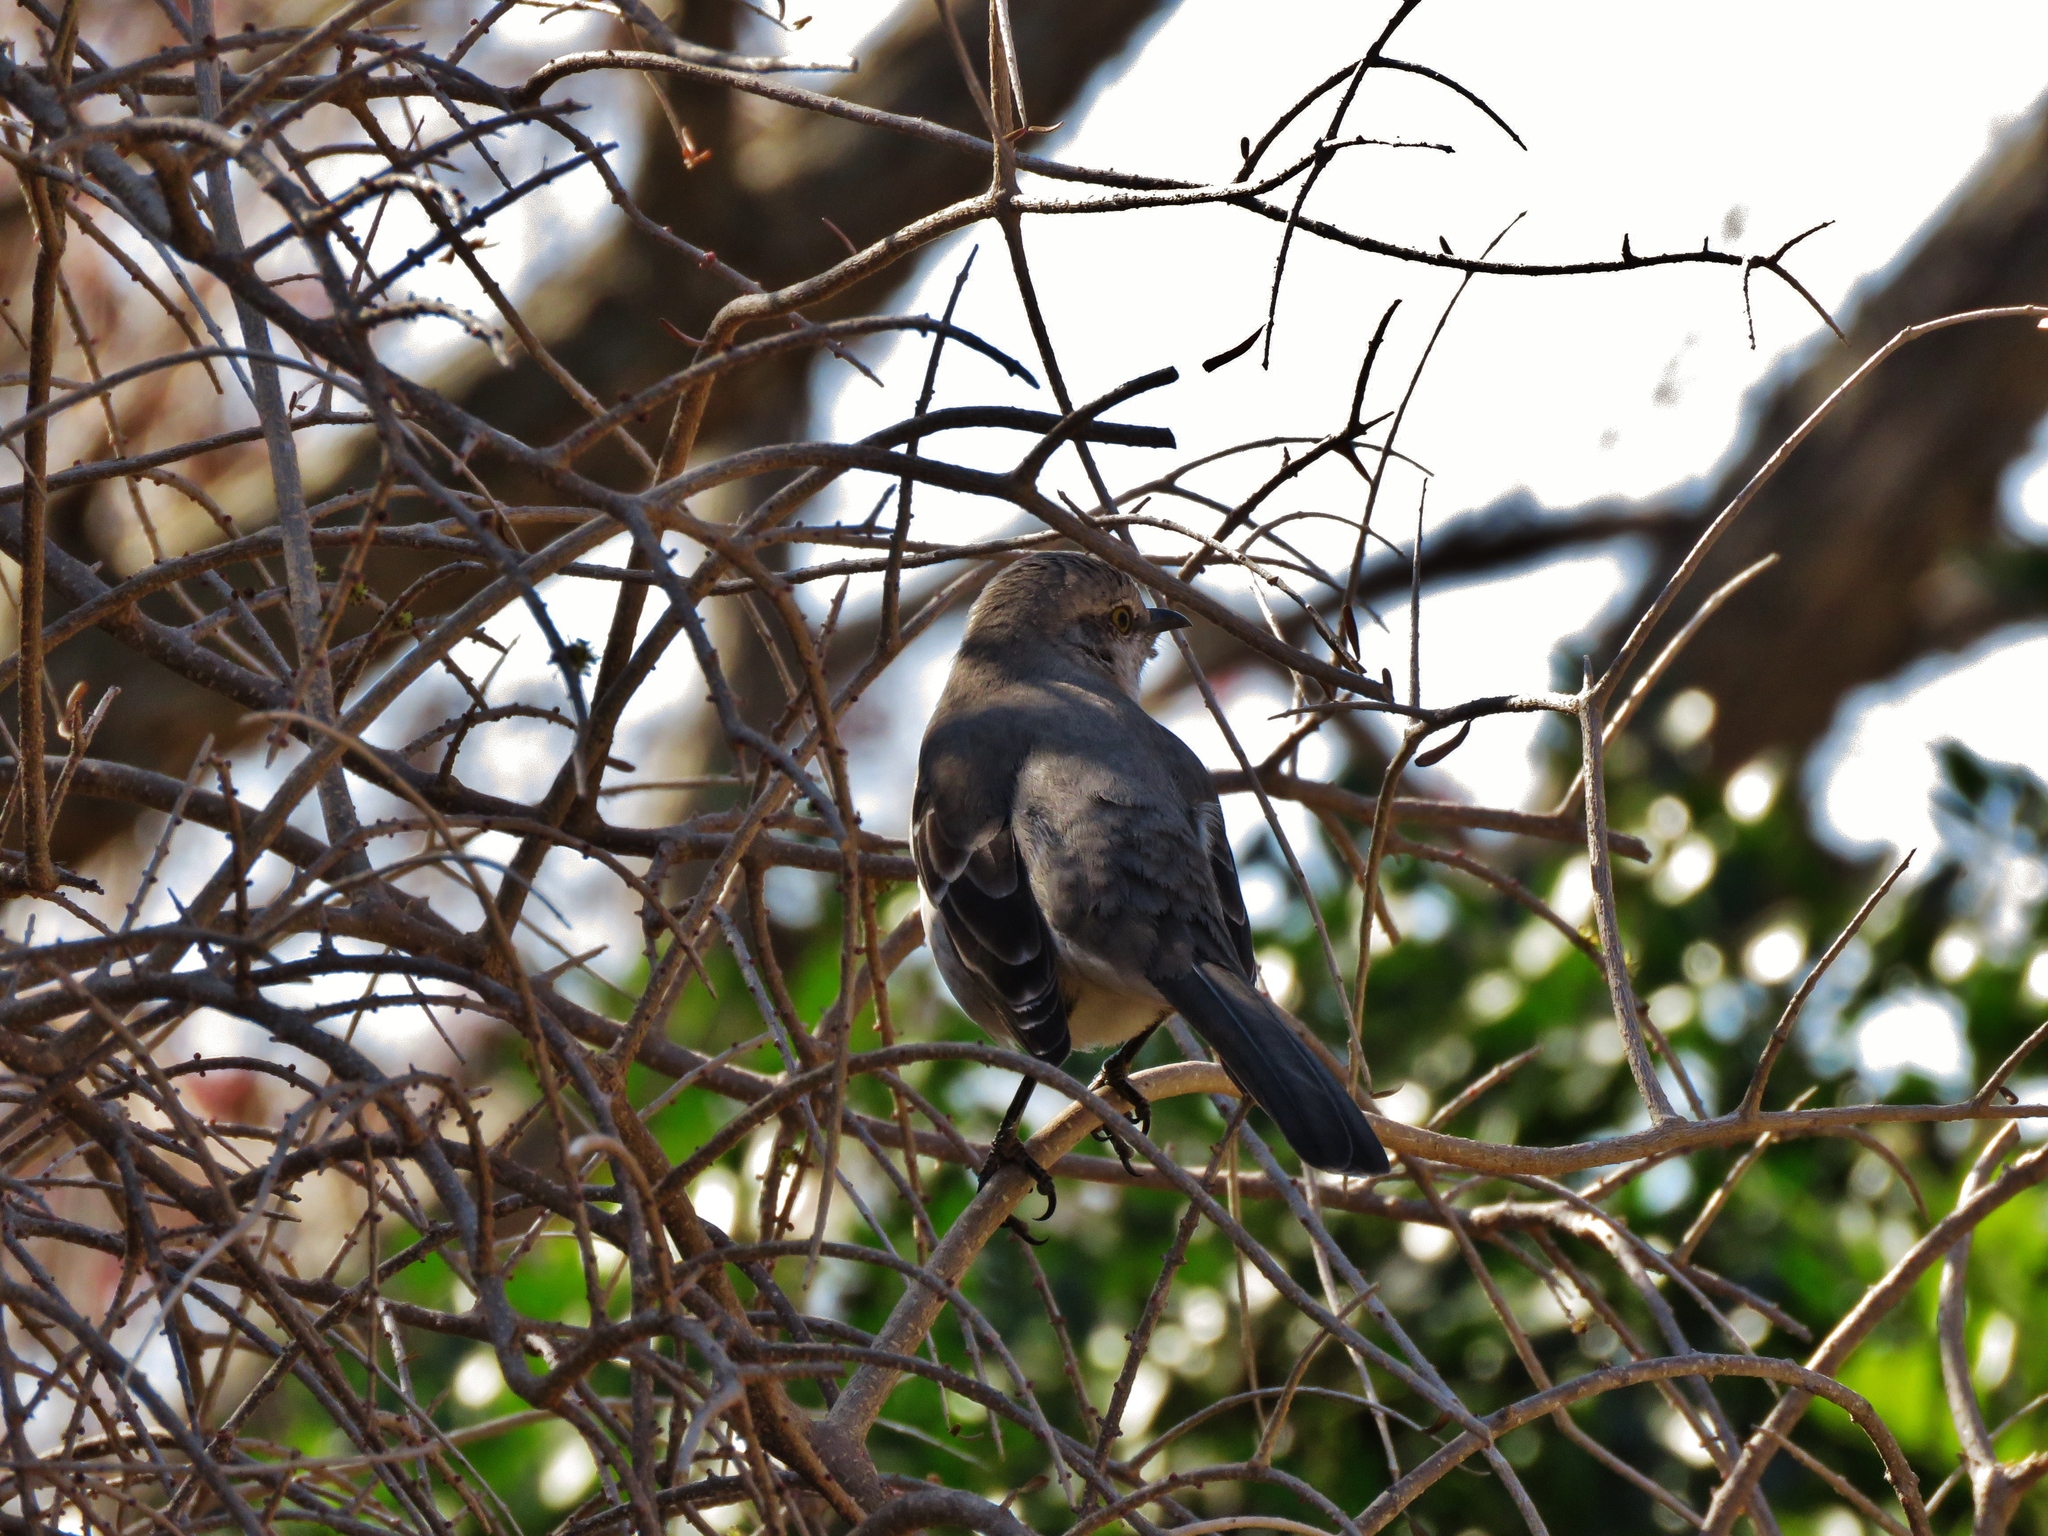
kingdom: Animalia
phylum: Chordata
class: Aves
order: Passeriformes
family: Mimidae
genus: Mimus
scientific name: Mimus polyglottos
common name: Northern mockingbird
